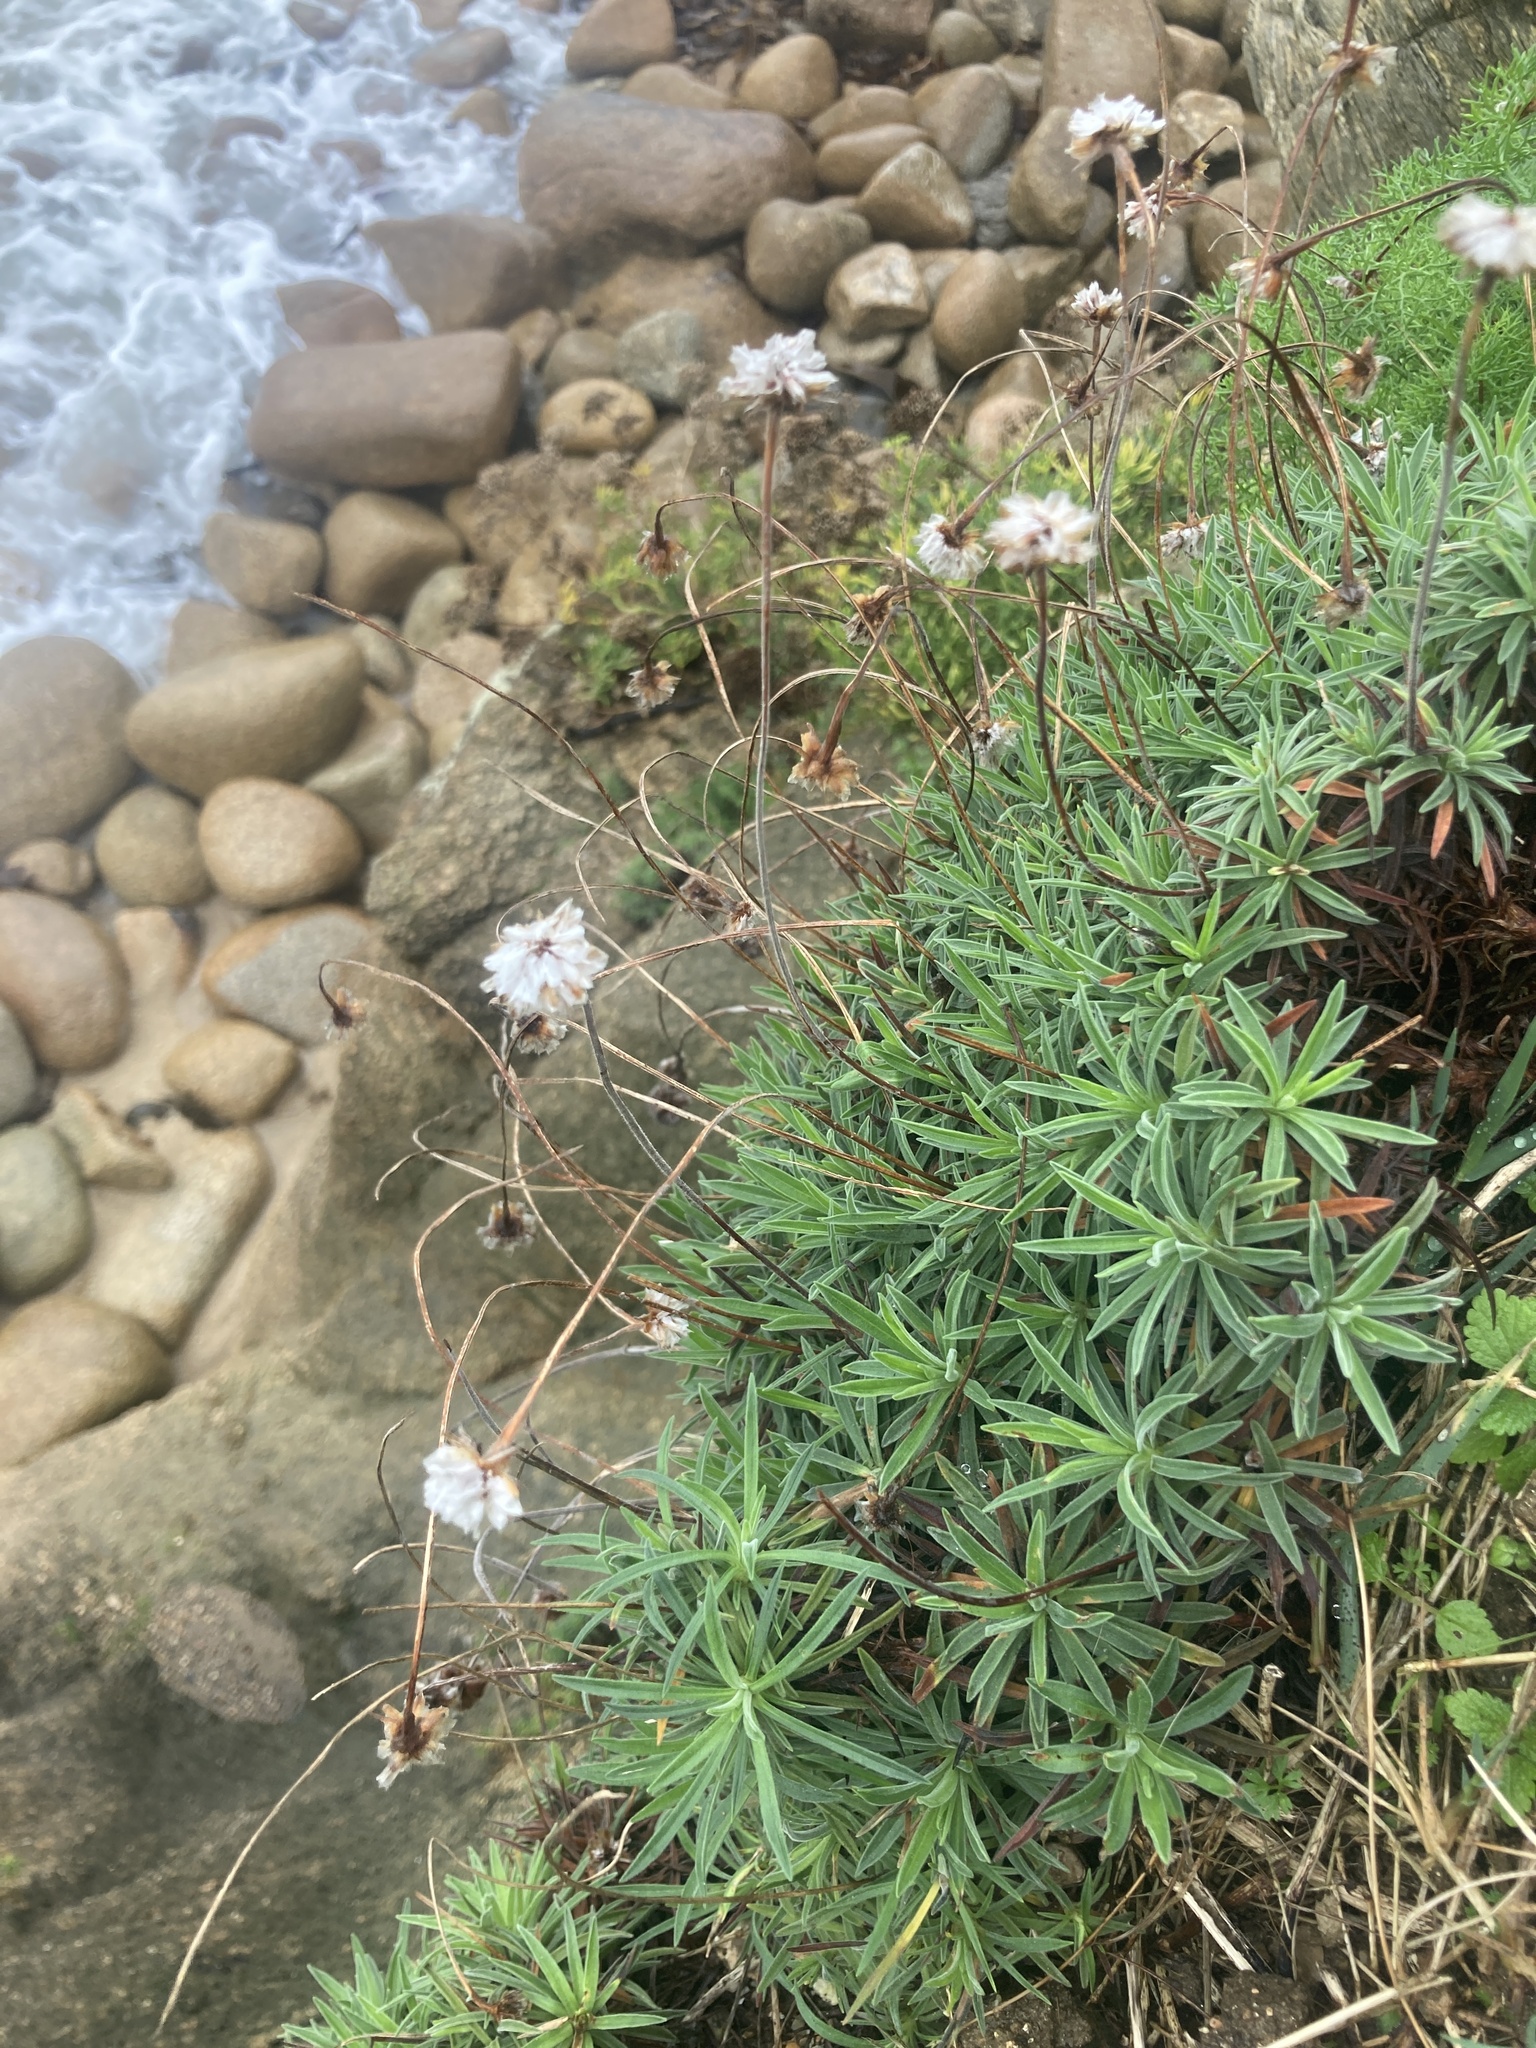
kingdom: Plantae
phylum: Tracheophyta
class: Magnoliopsida
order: Caryophyllales
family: Plumbaginaceae
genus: Armeria
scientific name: Armeria pubigera
